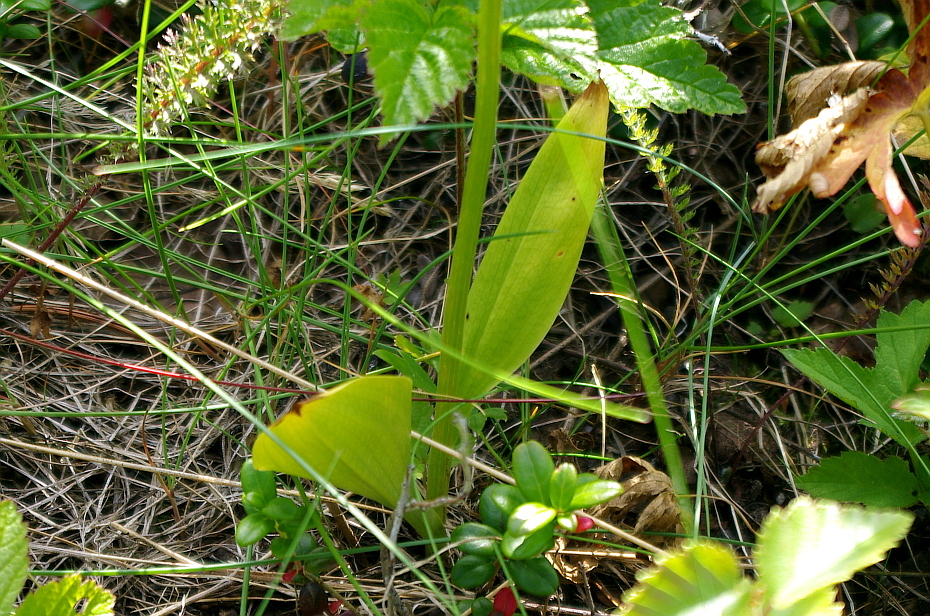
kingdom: Plantae
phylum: Tracheophyta
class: Liliopsida
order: Asparagales
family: Orchidaceae
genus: Platanthera
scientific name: Platanthera bifolia
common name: Lesser butterfly-orchid
